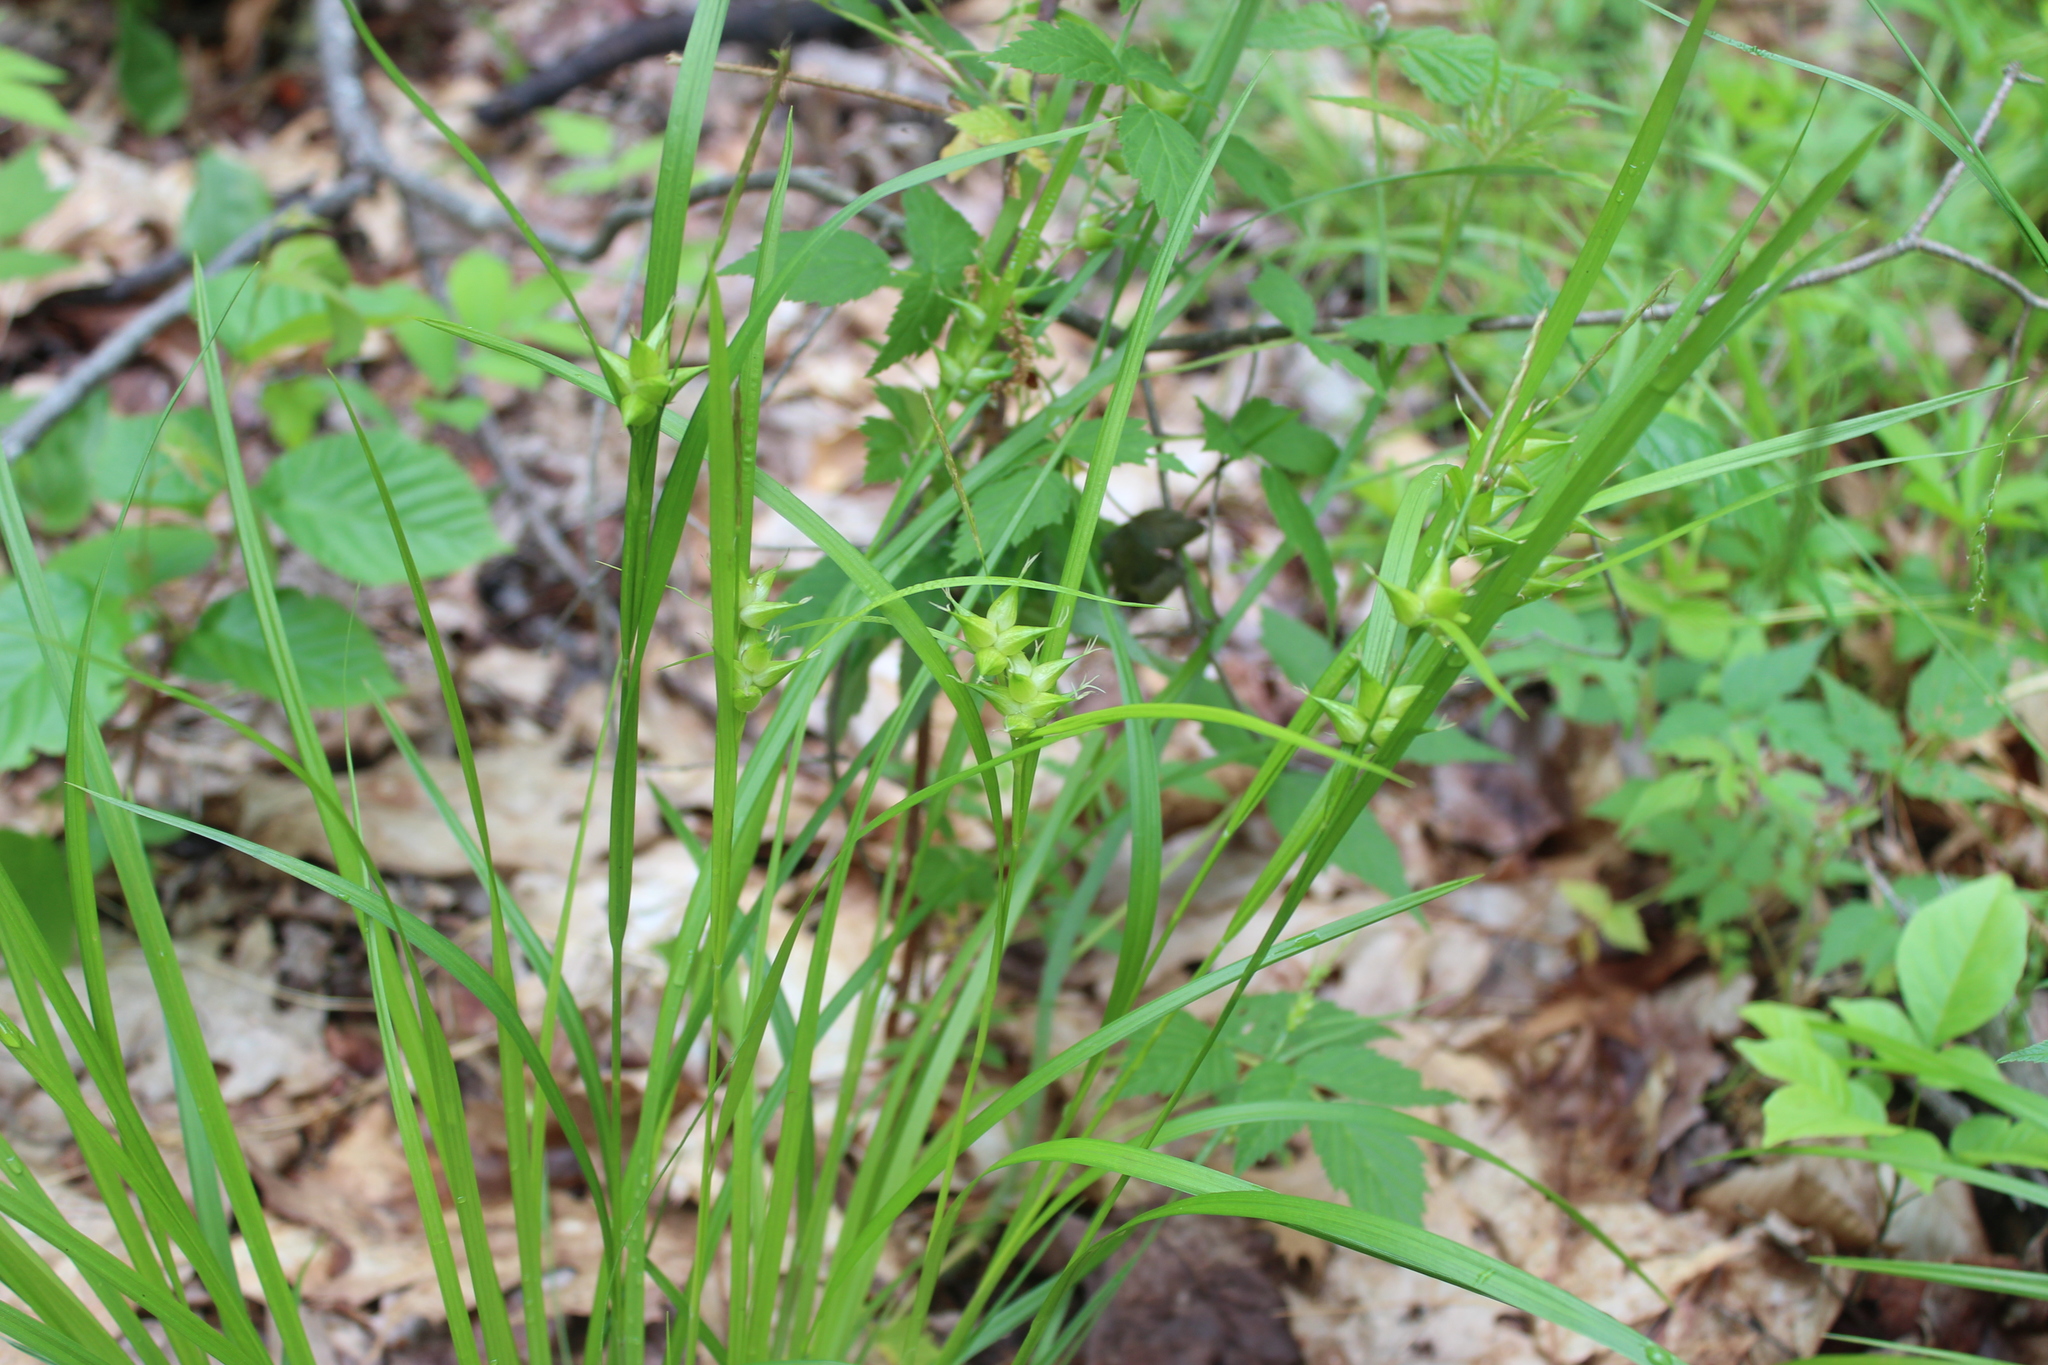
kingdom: Plantae
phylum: Tracheophyta
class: Liliopsida
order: Poales
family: Cyperaceae
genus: Carex
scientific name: Carex intumescens
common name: Greater bladder sedge
